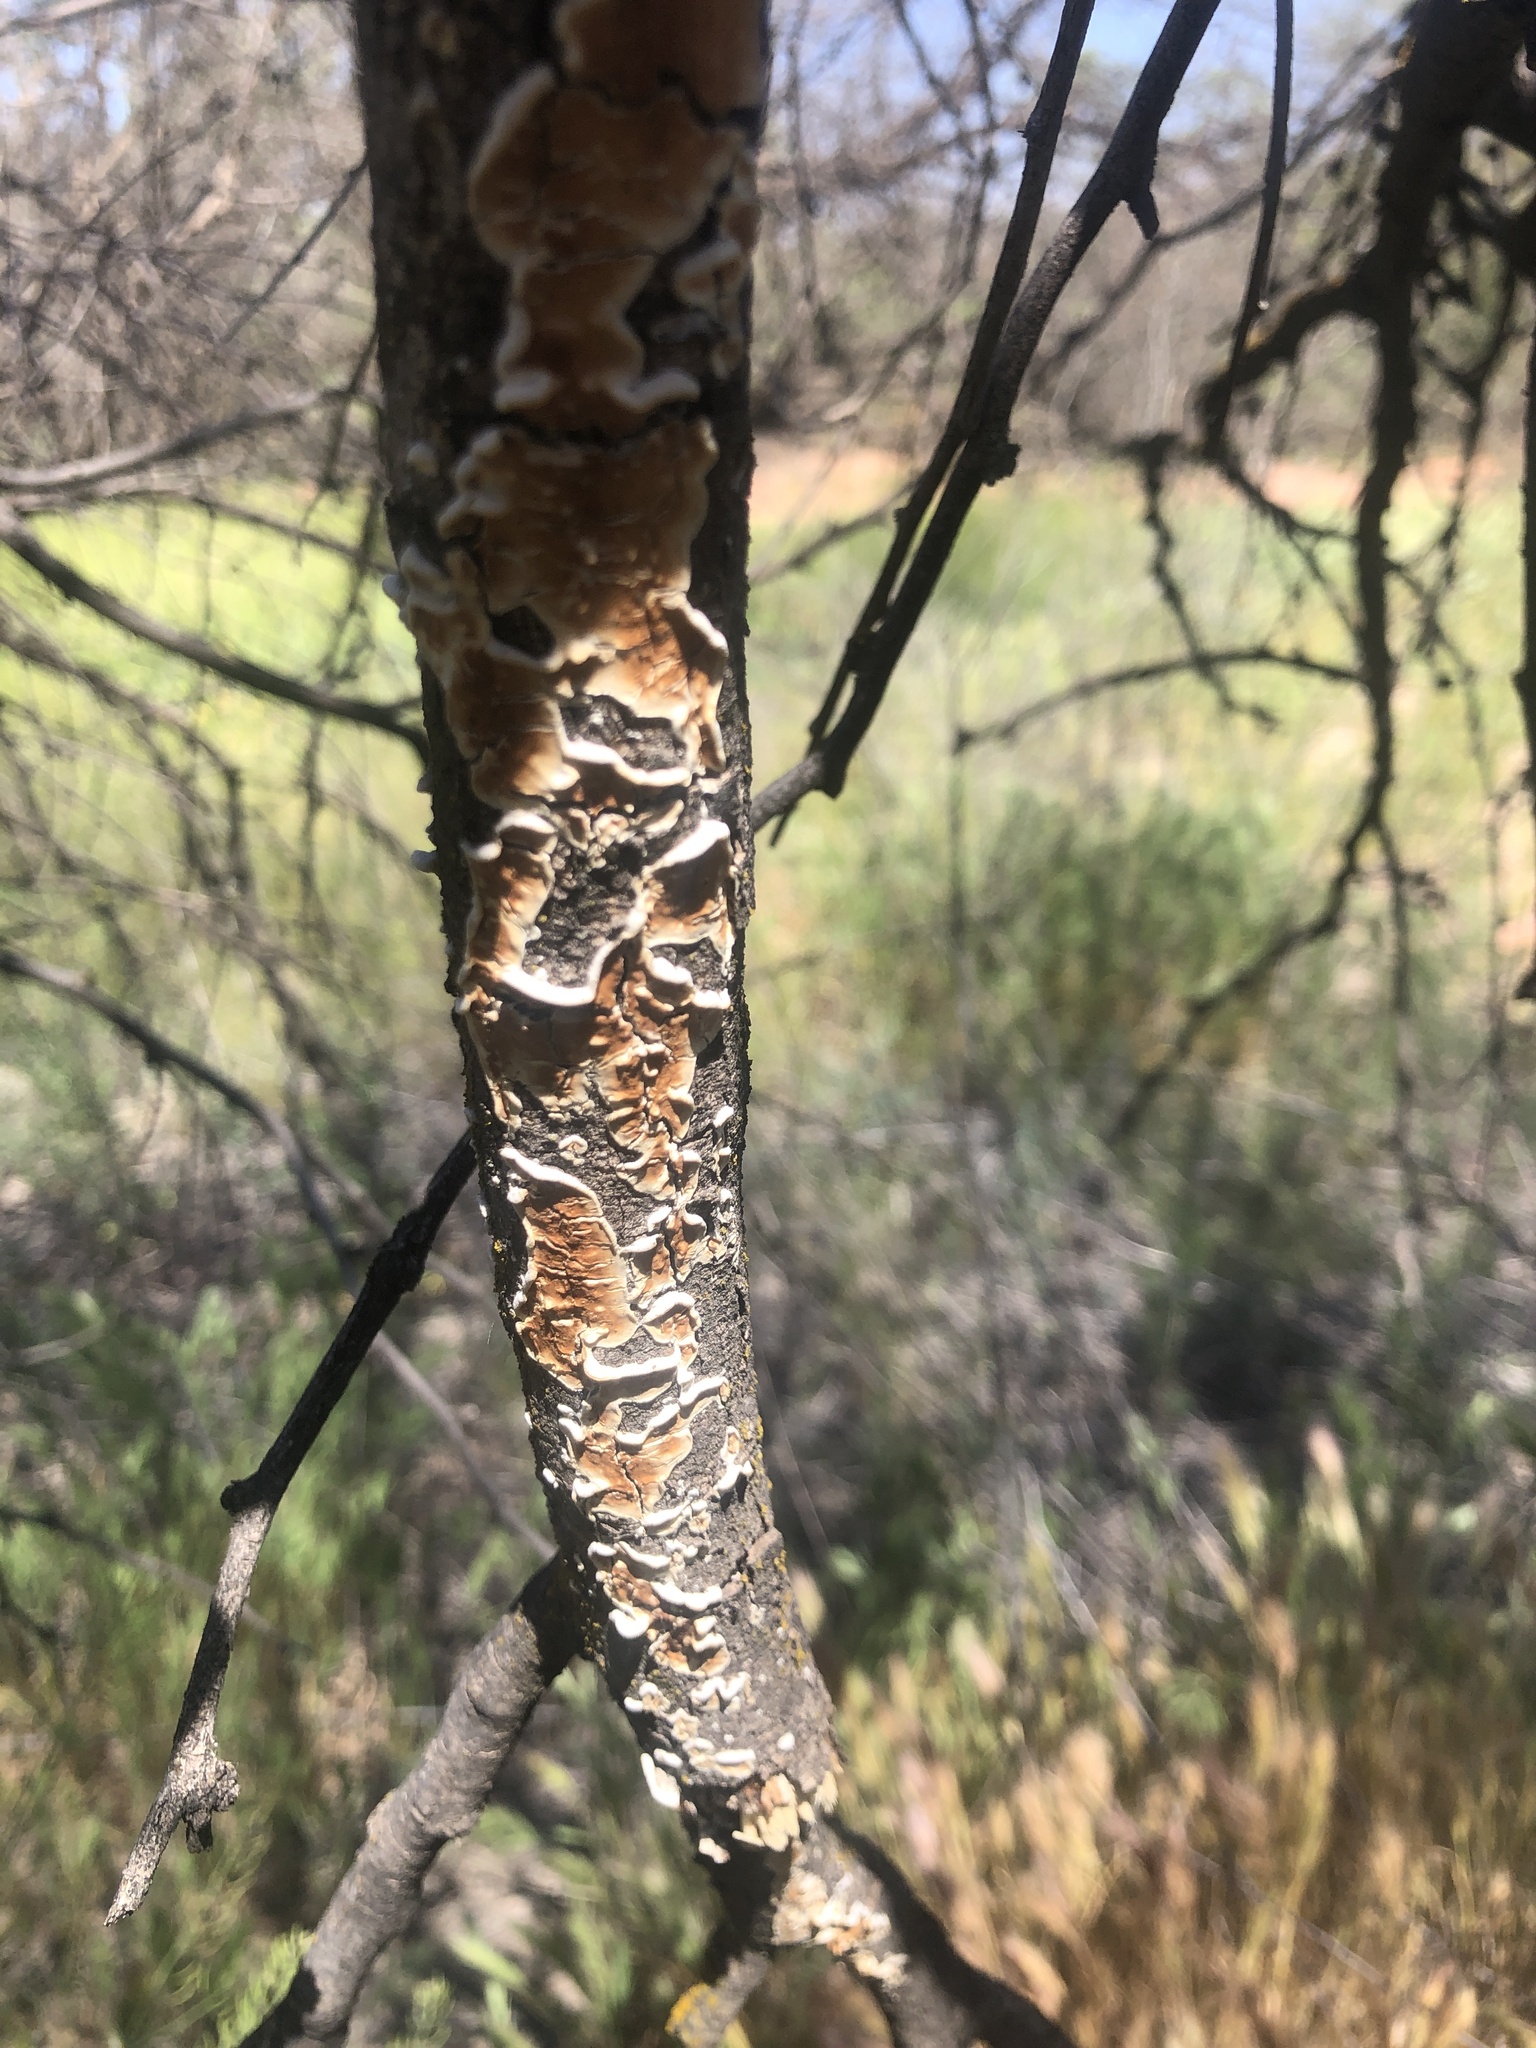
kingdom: Fungi
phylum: Basidiomycota
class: Agaricomycetes
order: Polyporales
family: Irpicaceae
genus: Byssomerulius
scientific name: Byssomerulius corium
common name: Netted crust
